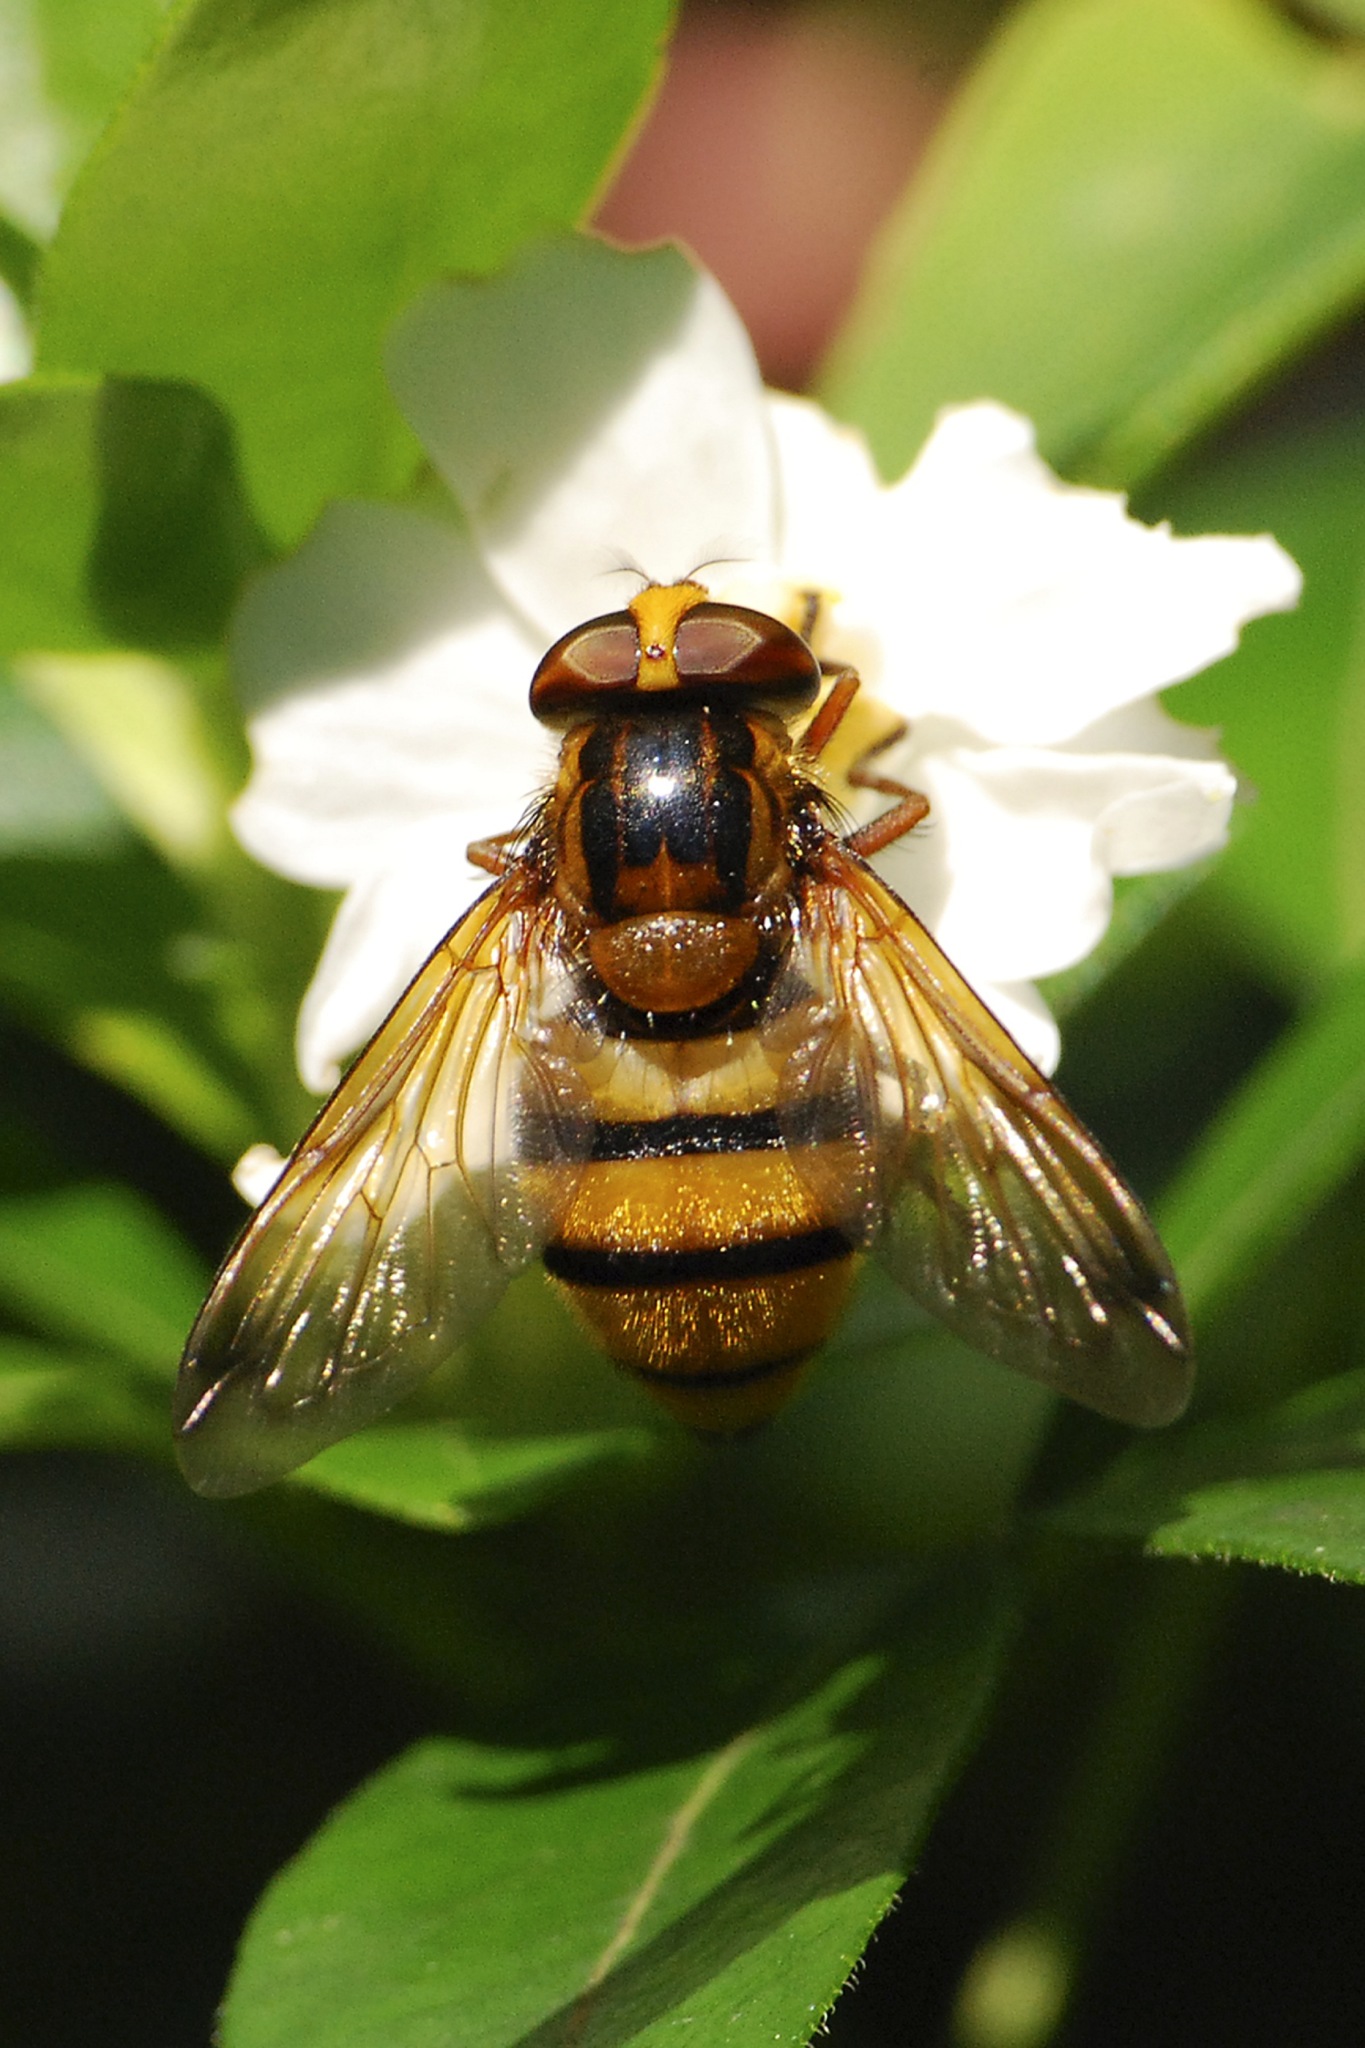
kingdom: Animalia
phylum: Arthropoda
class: Insecta
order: Diptera
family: Syrphidae
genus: Volucella
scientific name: Volucella inanis
